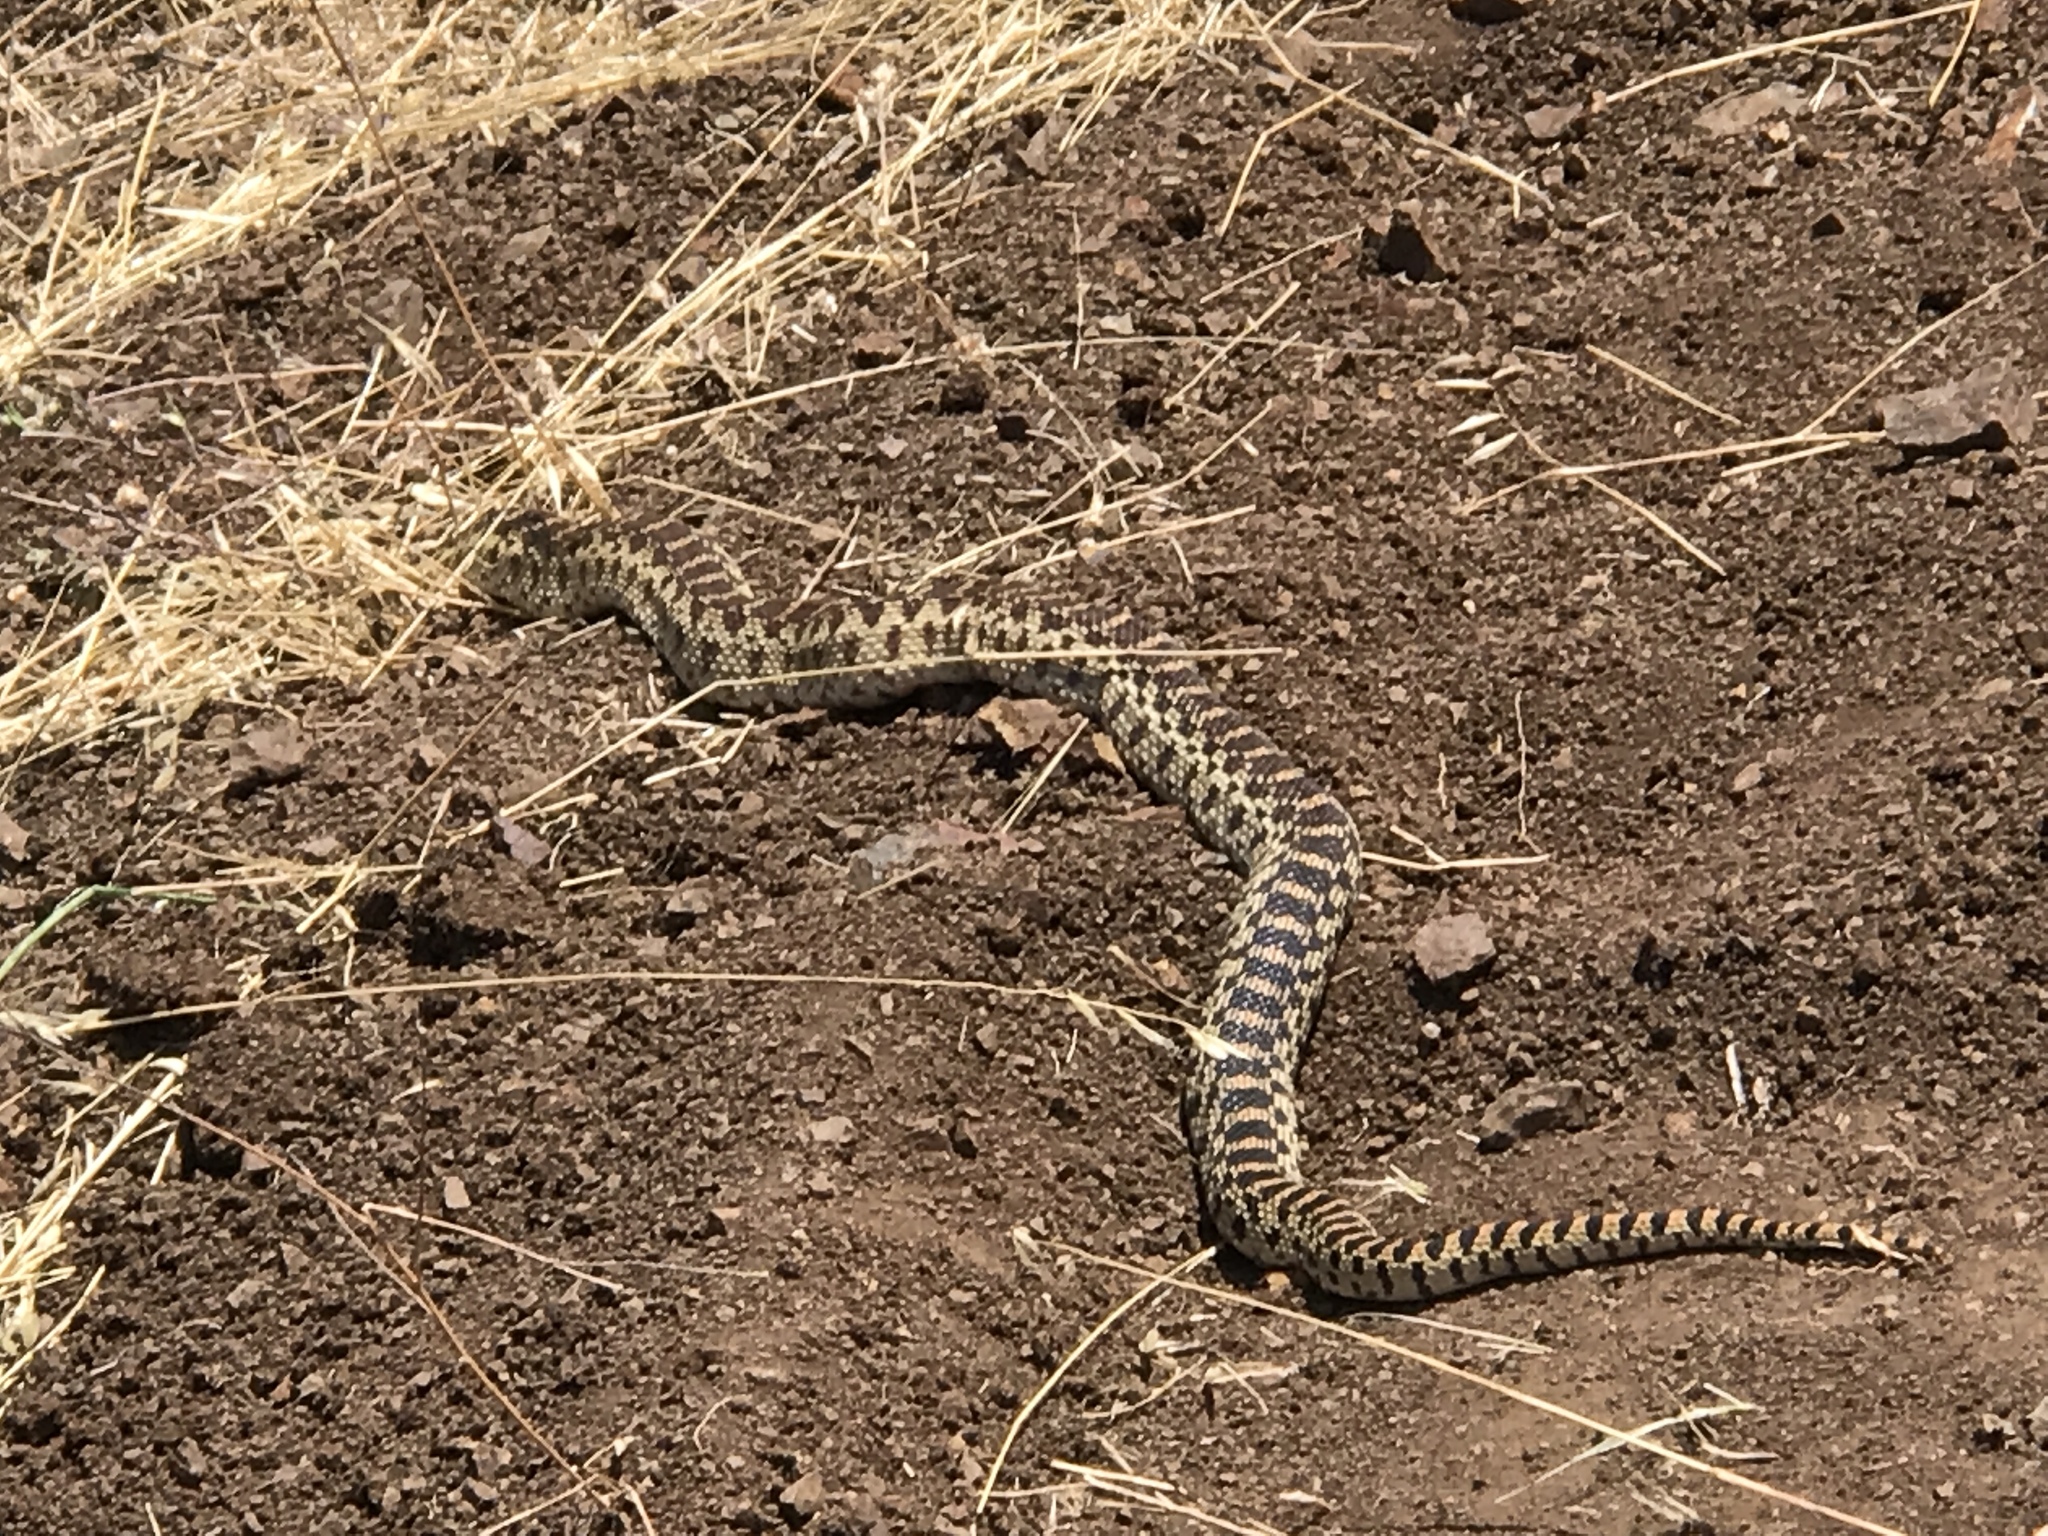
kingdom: Animalia
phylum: Chordata
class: Squamata
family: Colubridae
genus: Pituophis
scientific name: Pituophis catenifer
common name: Gopher snake
